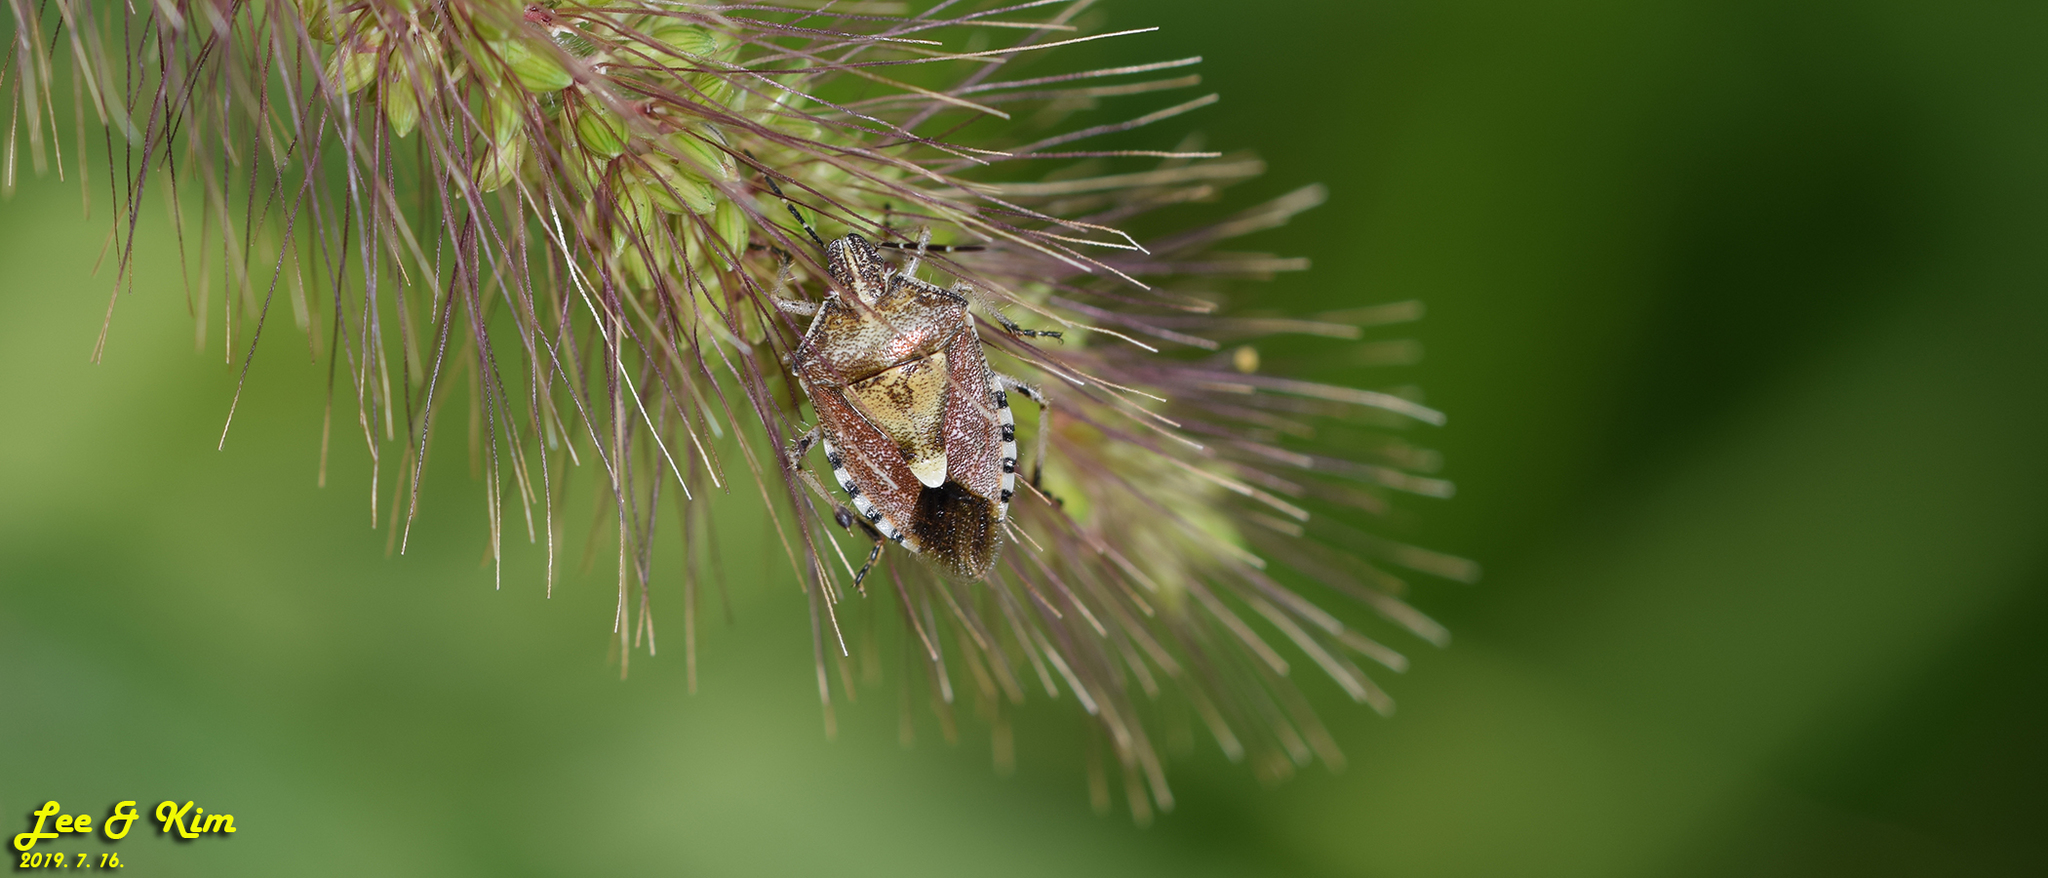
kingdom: Animalia
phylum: Arthropoda
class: Insecta
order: Hemiptera
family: Pentatomidae
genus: Dolycoris
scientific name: Dolycoris baccarum
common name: Sloe bug
